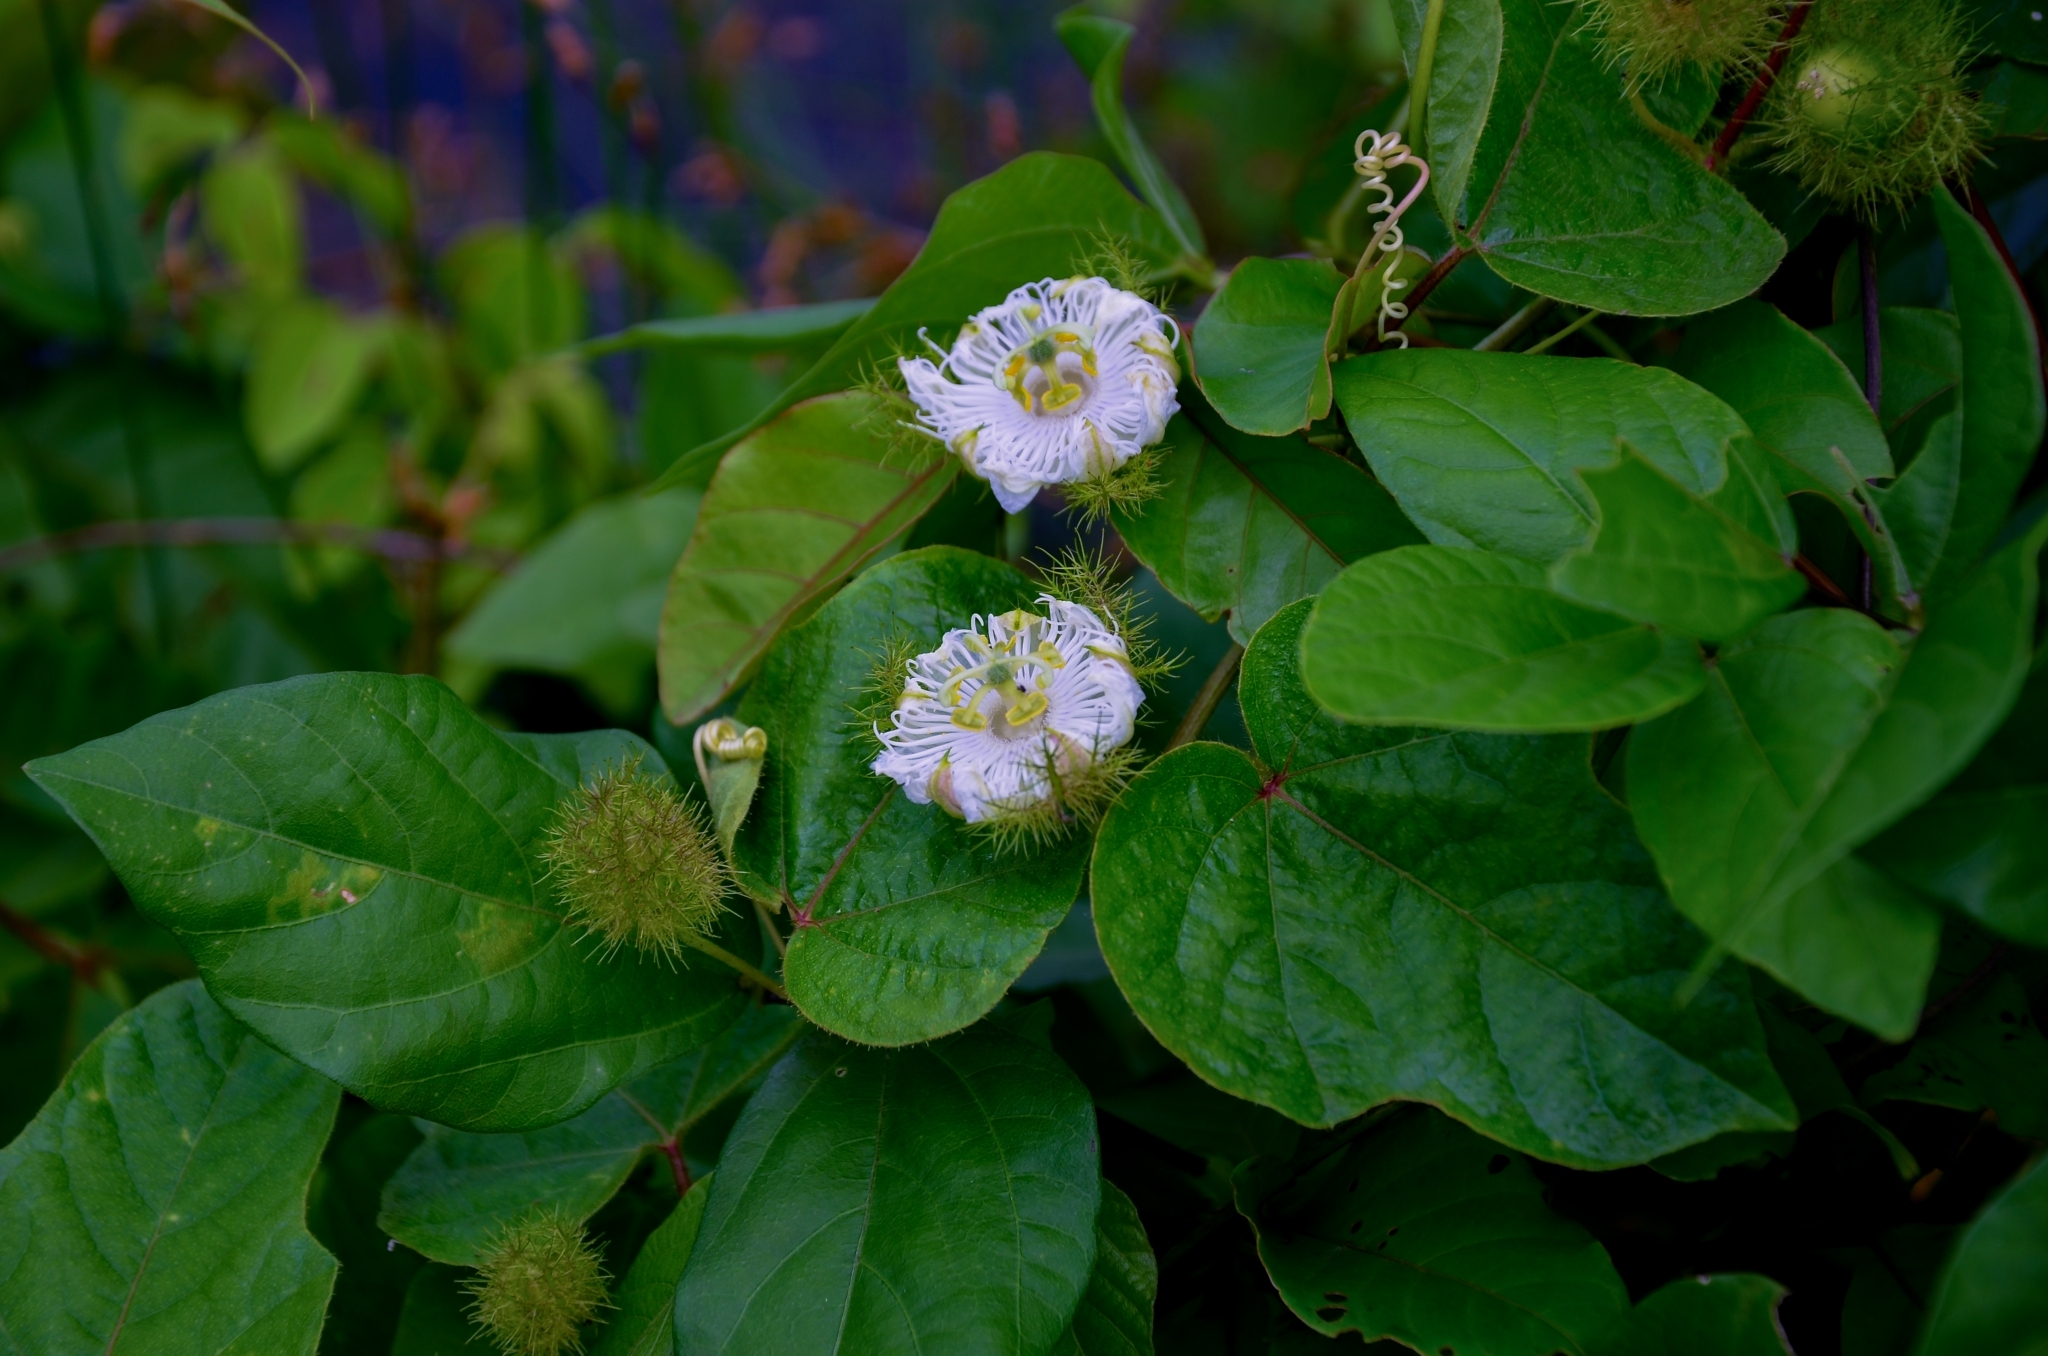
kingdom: Plantae
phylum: Tracheophyta
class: Magnoliopsida
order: Malpighiales
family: Passifloraceae
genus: Passiflora
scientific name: Passiflora foetida
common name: Fetid passionflower
